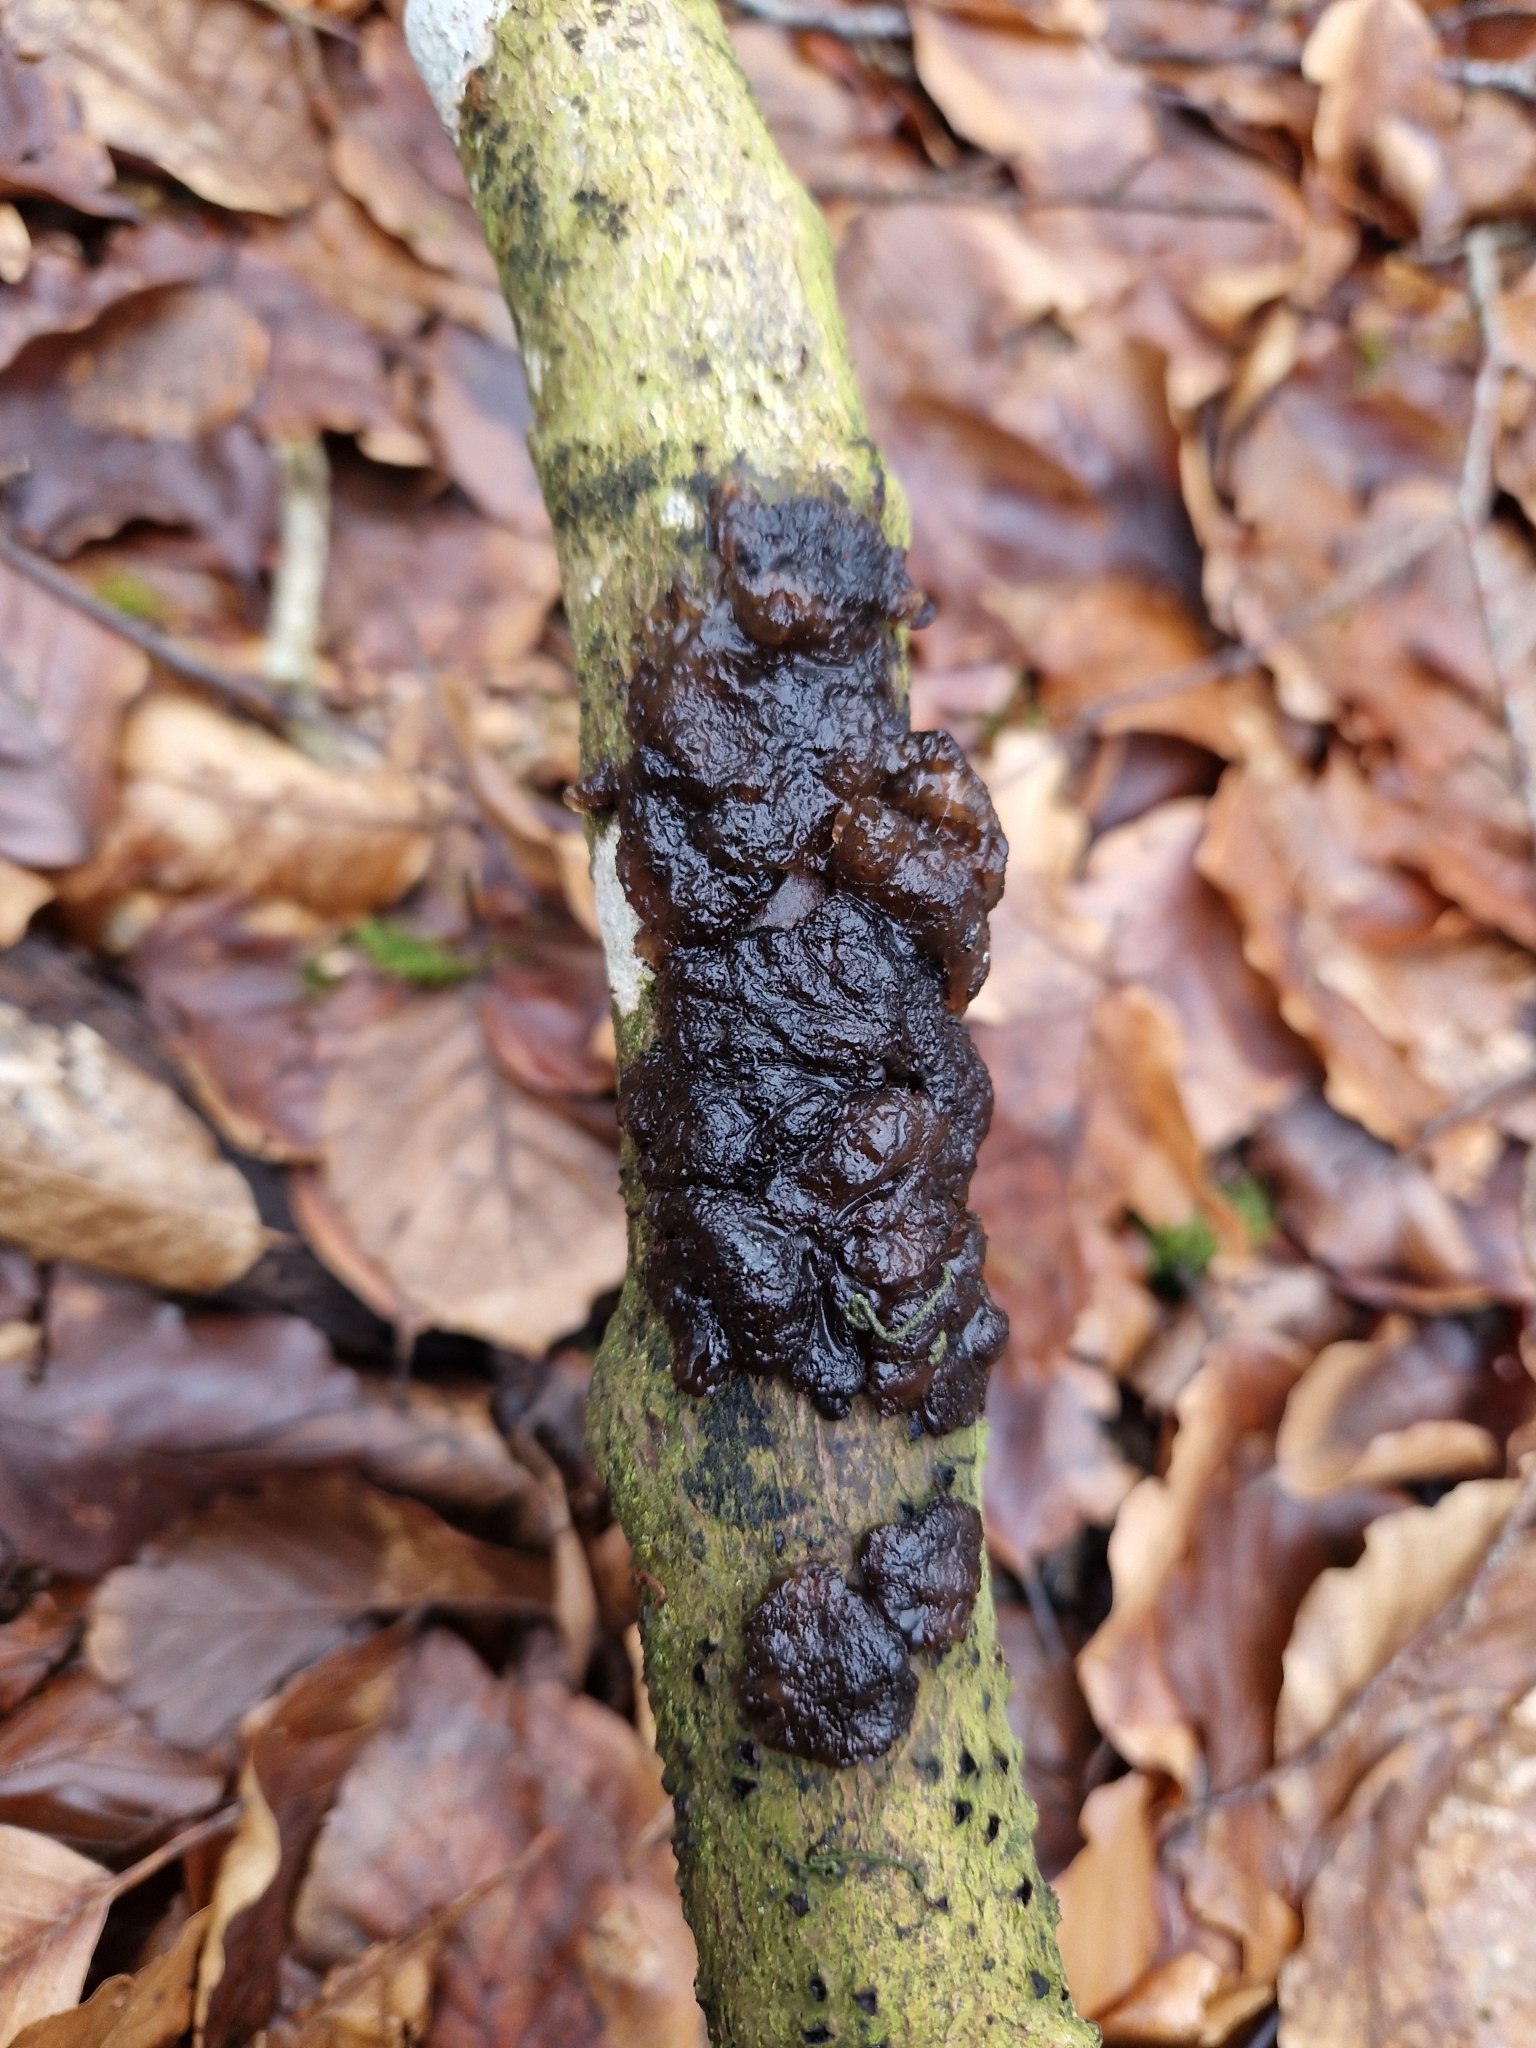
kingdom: Fungi
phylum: Basidiomycota
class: Agaricomycetes
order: Auriculariales
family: Auriculariaceae
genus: Exidia
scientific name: Exidia glandulosa
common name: Witches' butter
